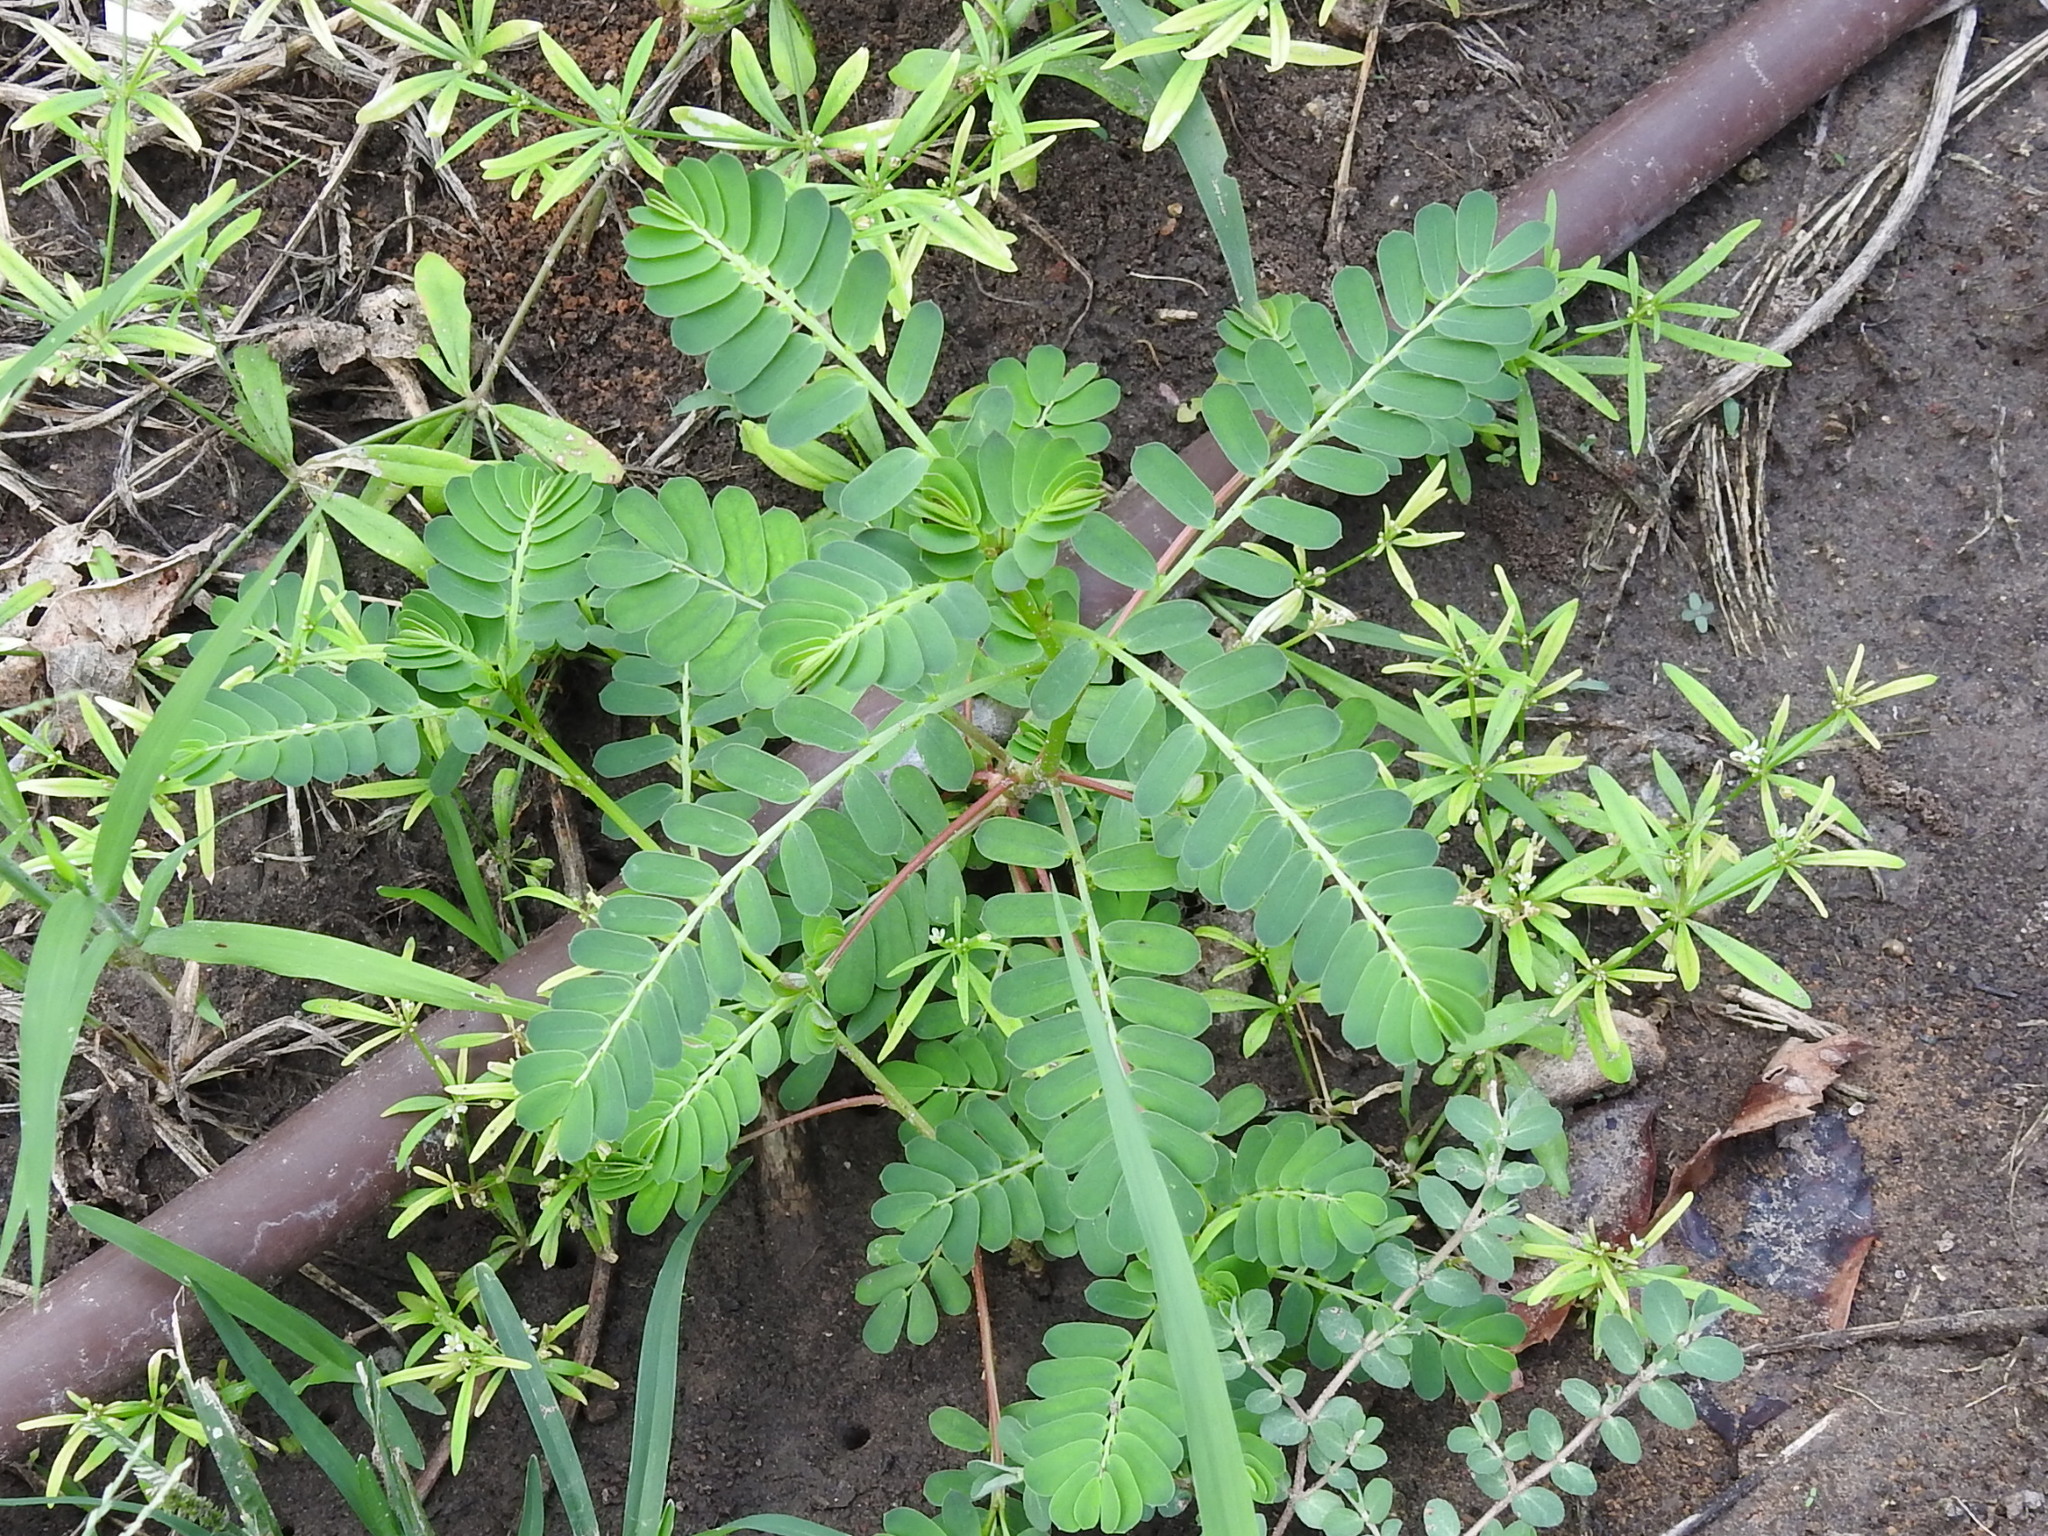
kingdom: Plantae
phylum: Tracheophyta
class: Magnoliopsida
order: Malpighiales
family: Phyllanthaceae
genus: Phyllanthus
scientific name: Phyllanthus urinaria
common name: Chamber bitter
